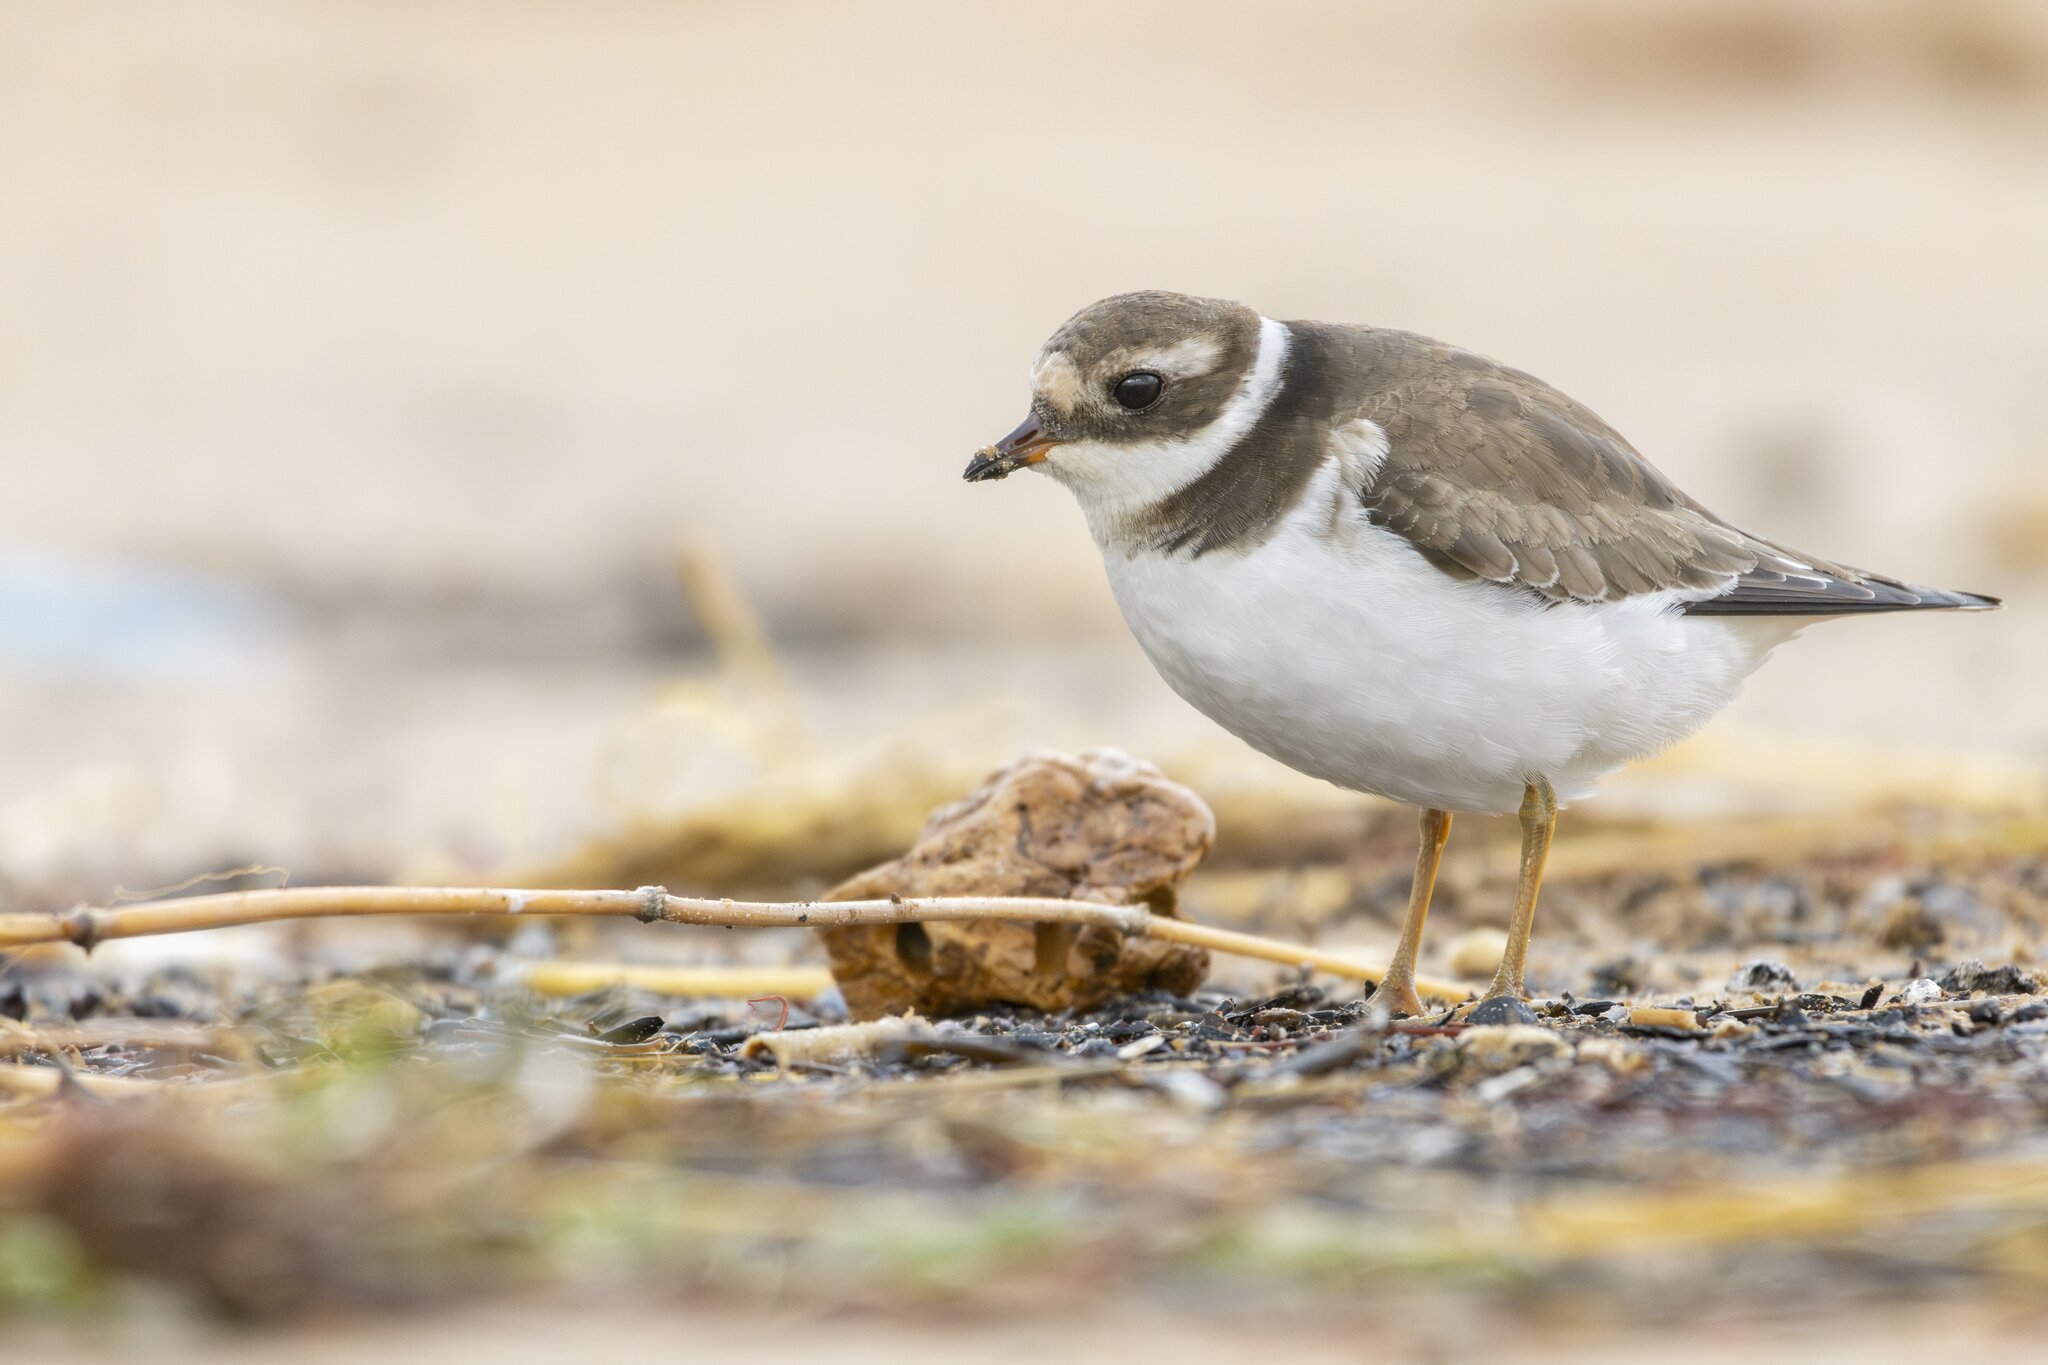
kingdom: Animalia
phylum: Chordata
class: Aves
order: Charadriiformes
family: Charadriidae
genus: Charadrius
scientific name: Charadrius hiaticula
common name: Common ringed plover
